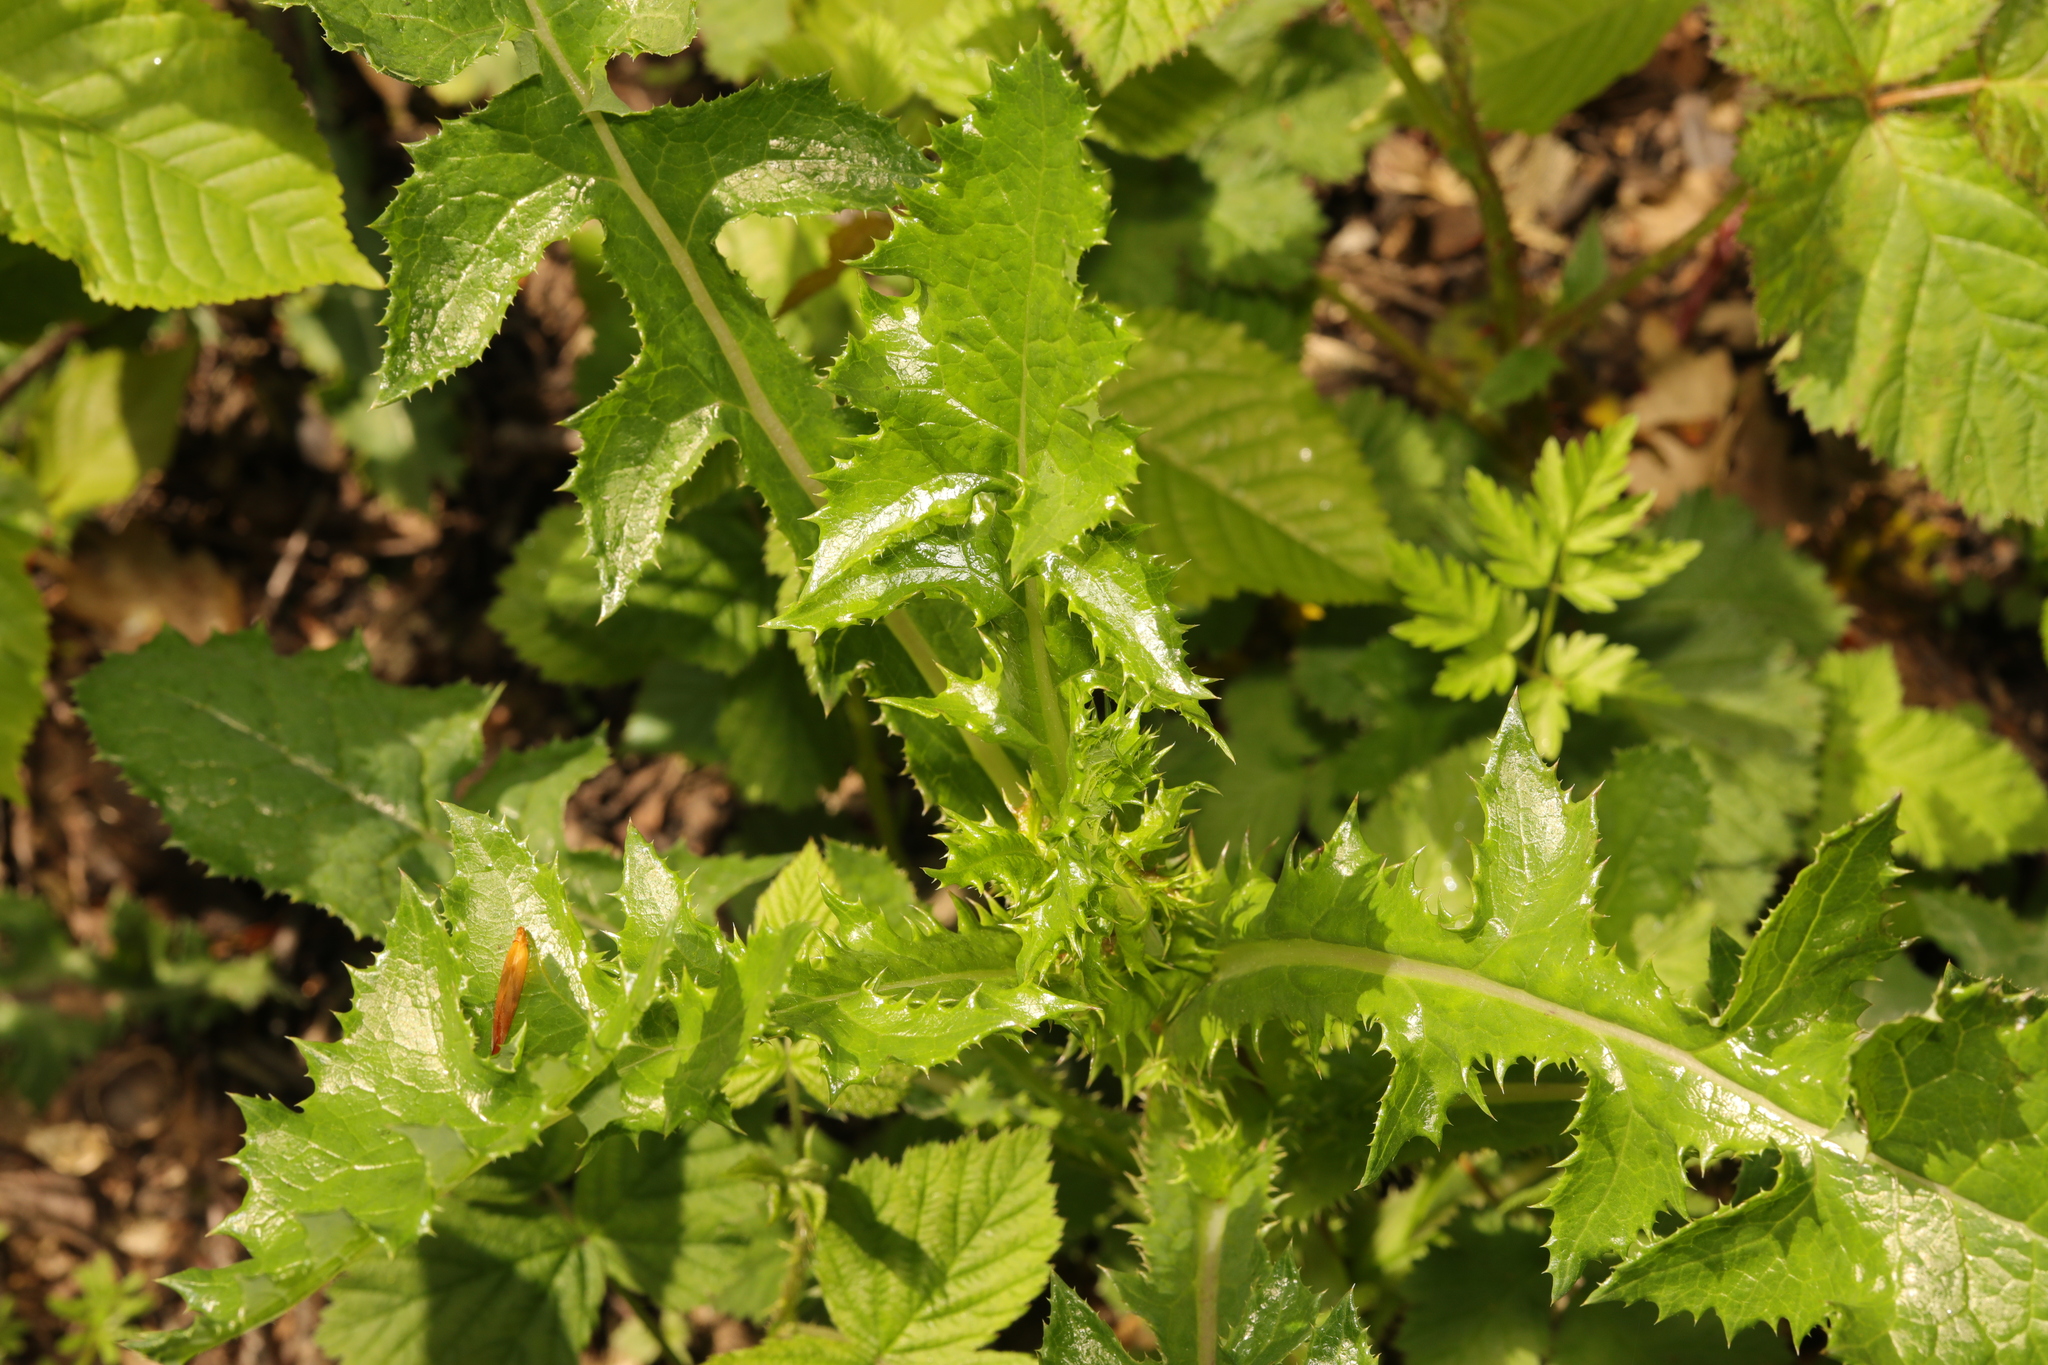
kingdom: Plantae
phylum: Tracheophyta
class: Magnoliopsida
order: Asterales
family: Asteraceae
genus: Sonchus
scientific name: Sonchus asper
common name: Prickly sow-thistle
